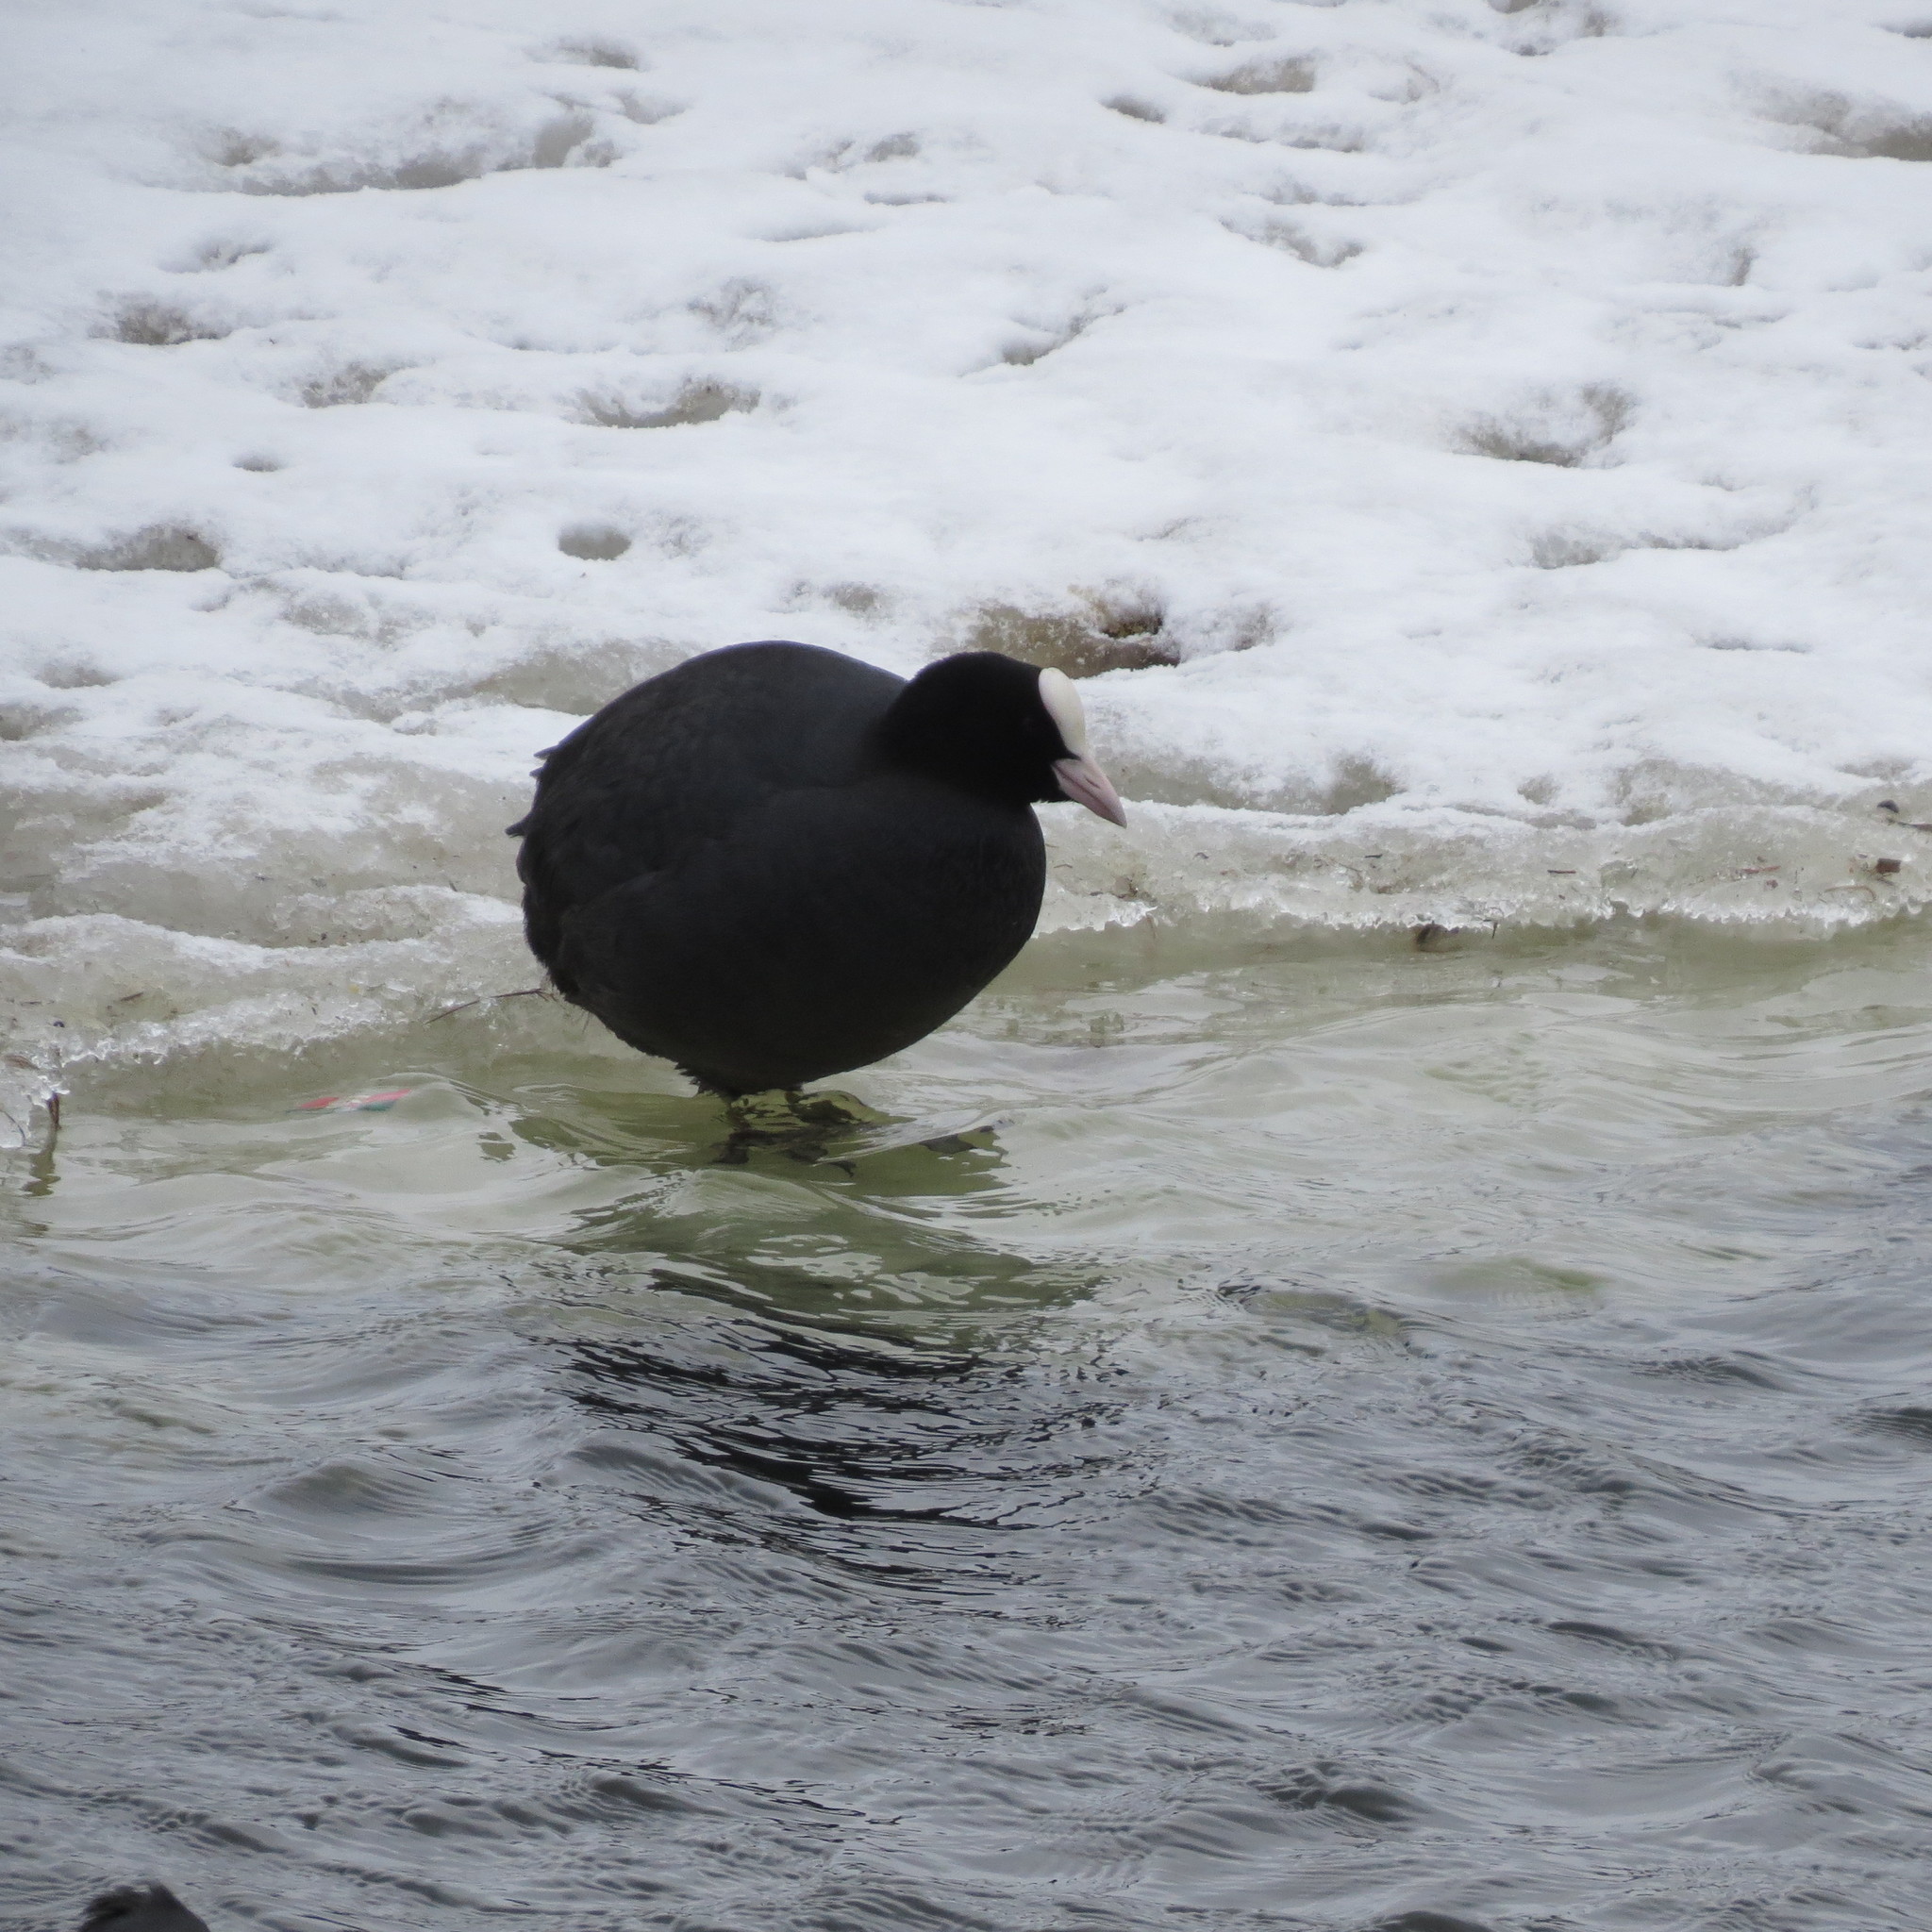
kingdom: Animalia
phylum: Chordata
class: Aves
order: Gruiformes
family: Rallidae
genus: Fulica
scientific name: Fulica atra
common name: Eurasian coot
